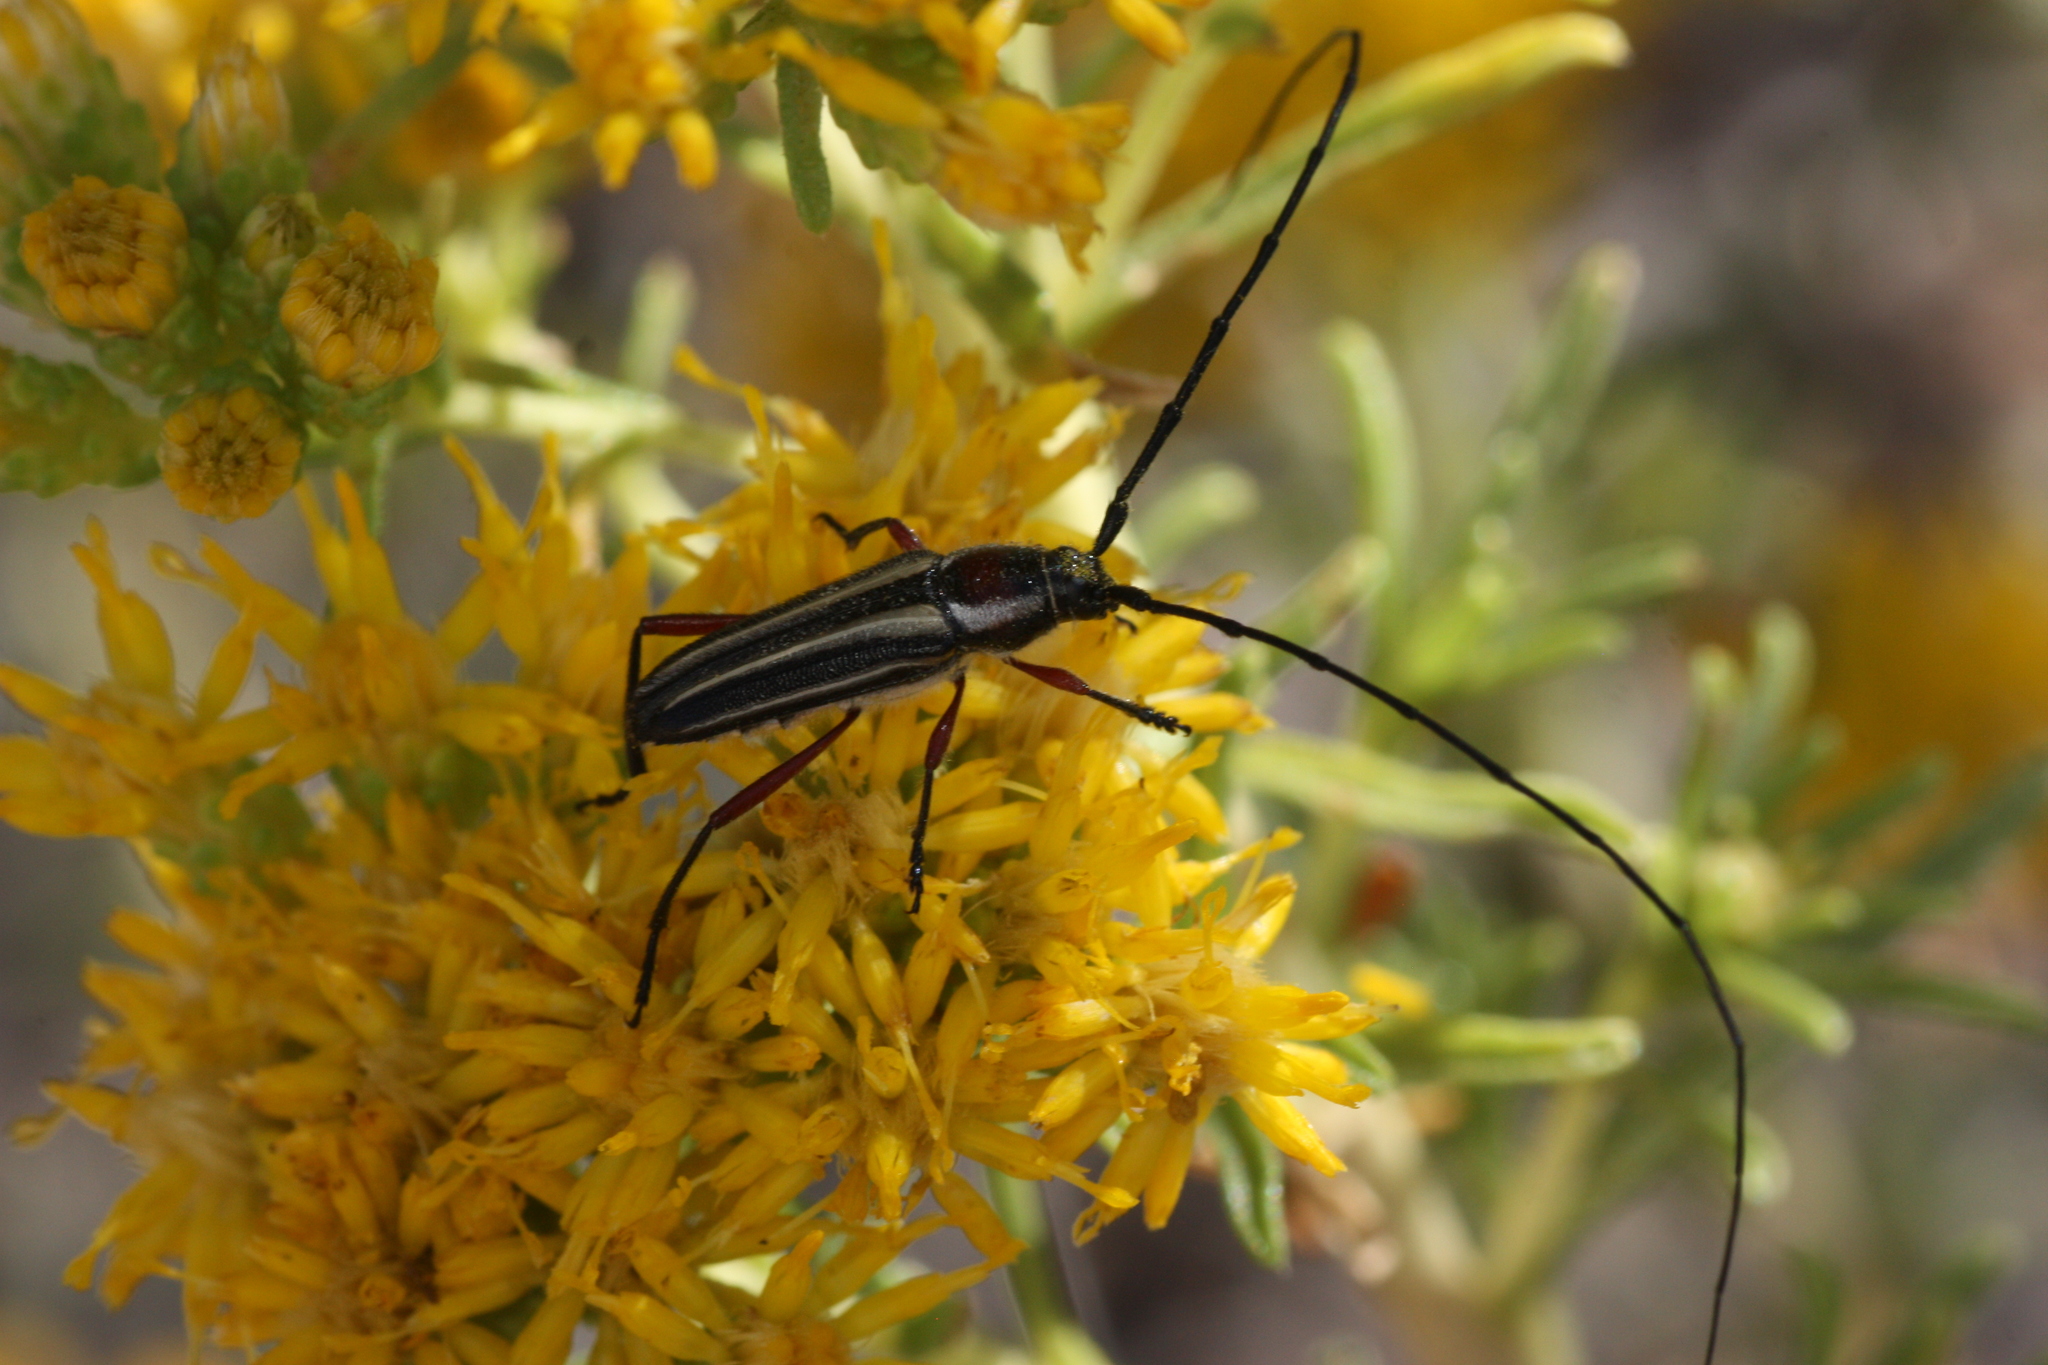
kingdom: Animalia
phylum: Arthropoda
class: Insecta
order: Coleoptera
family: Cerambycidae
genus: Sphaenothecus
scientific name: Sphaenothecus bilineatus
